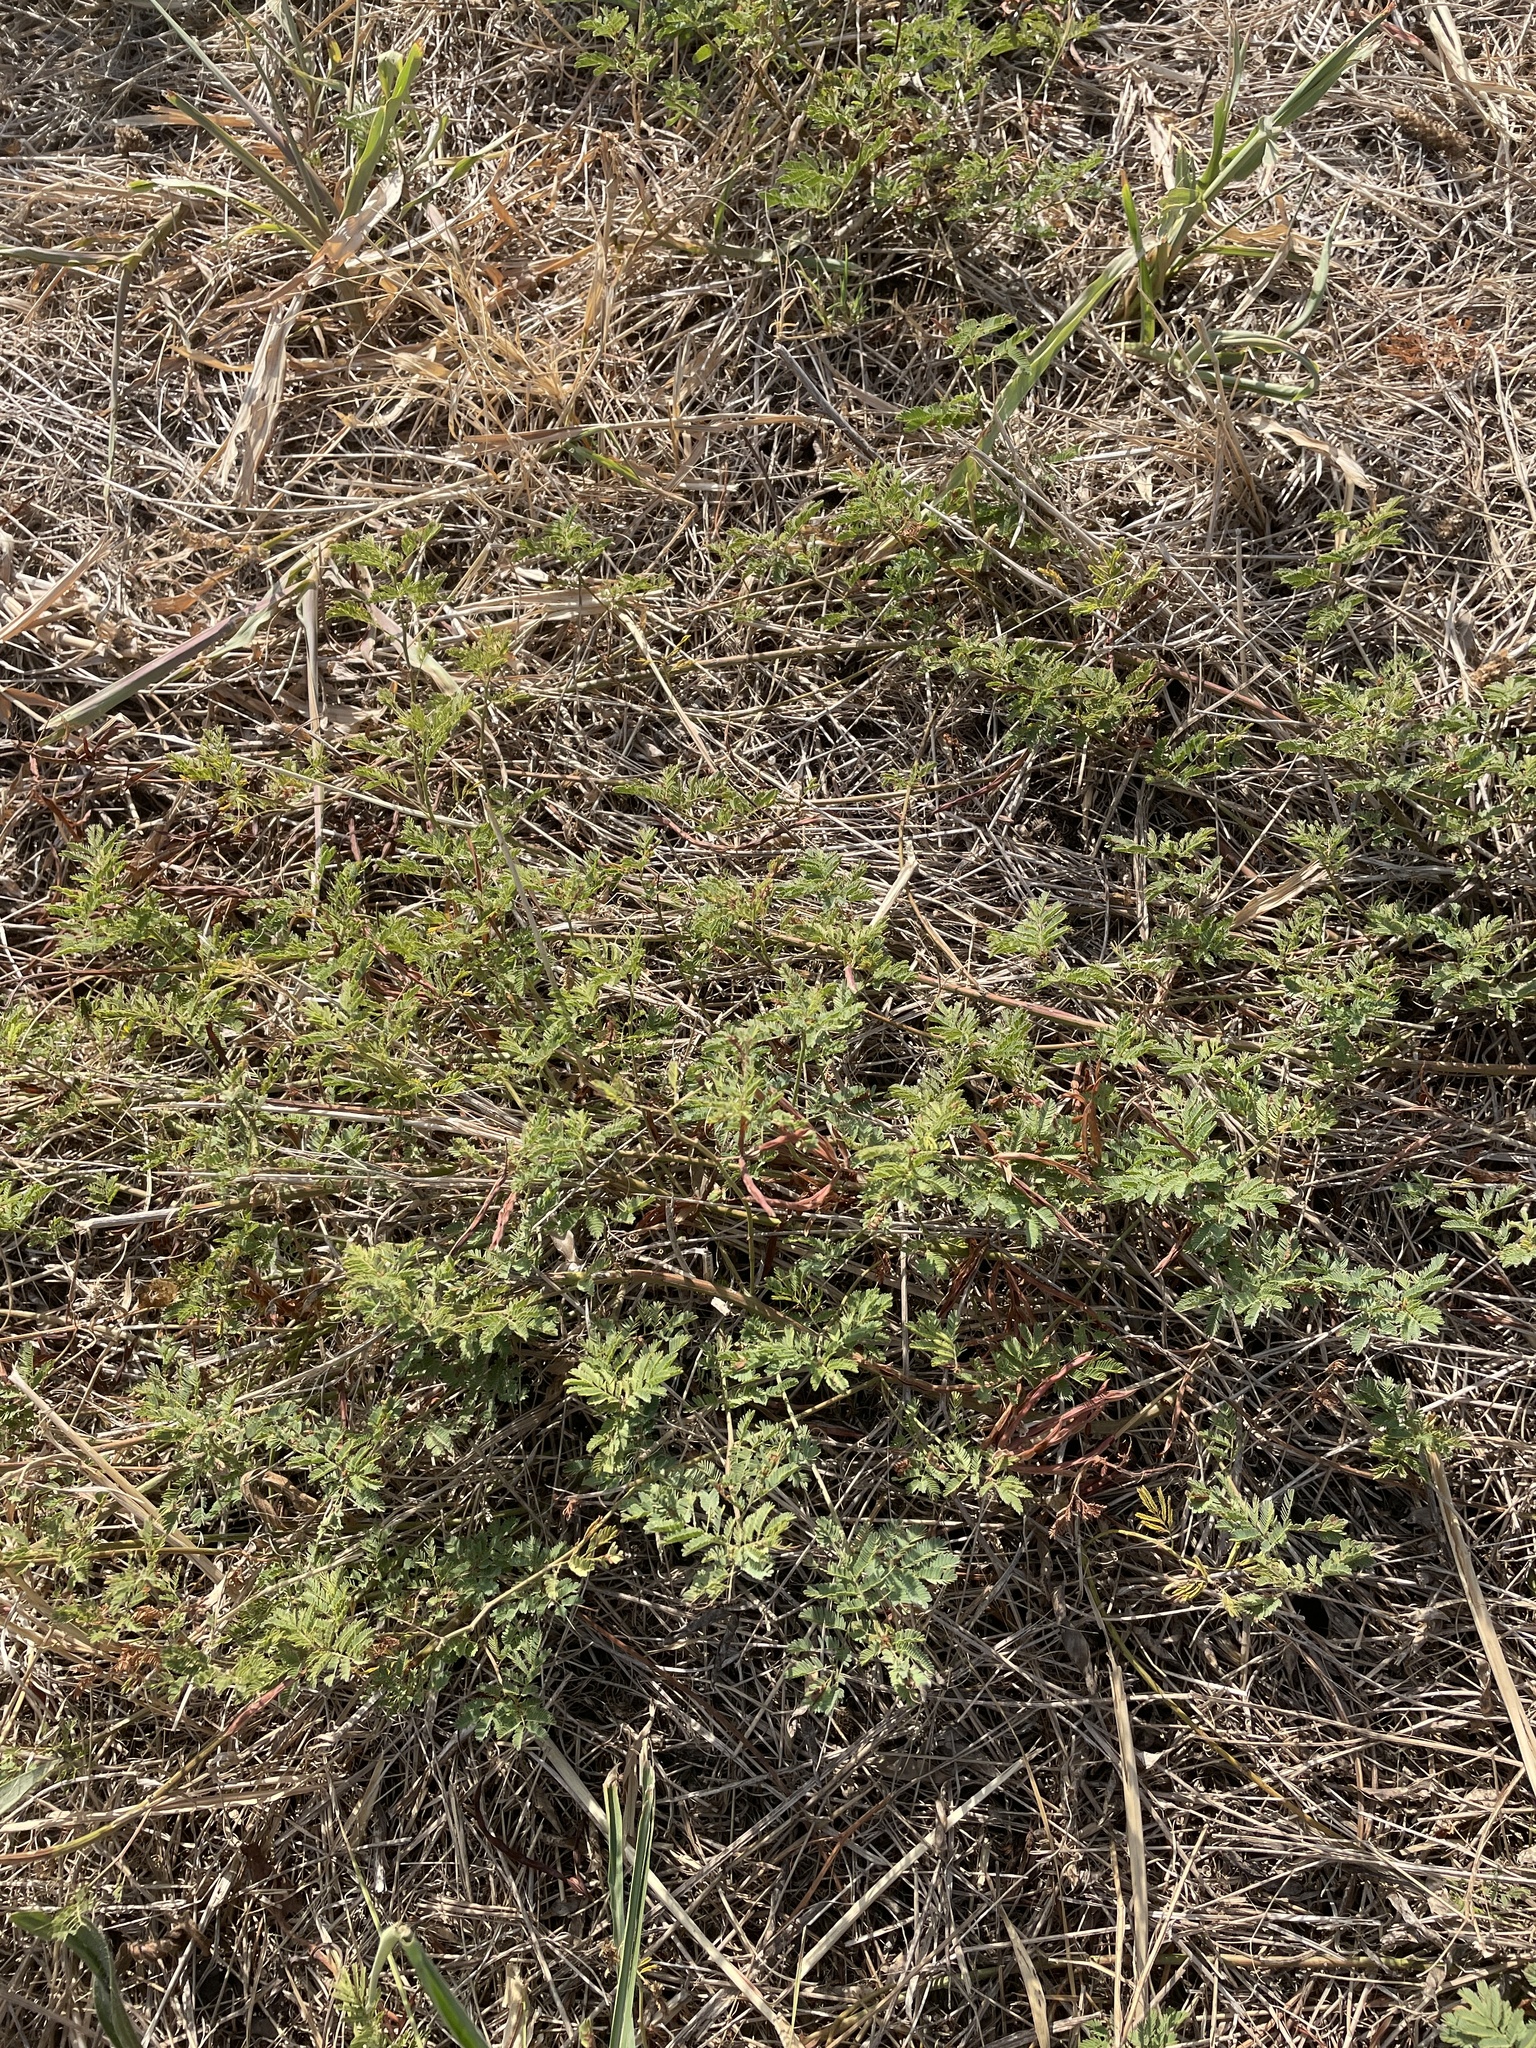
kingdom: Plantae
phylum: Tracheophyta
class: Magnoliopsida
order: Fabales
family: Fabaceae
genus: Desmanthus
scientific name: Desmanthus leptolobus
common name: Prairie-mimosa
